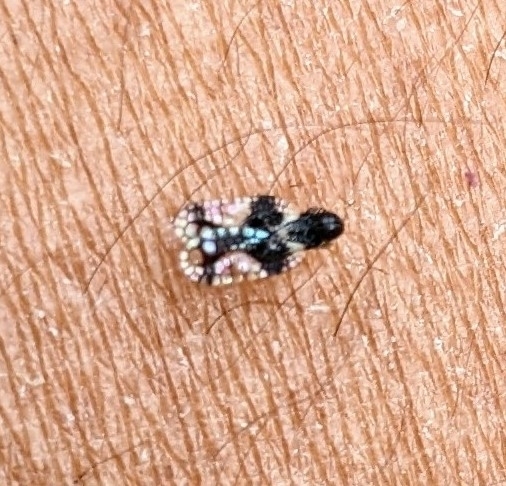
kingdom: Animalia
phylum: Arthropoda
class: Insecta
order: Hemiptera
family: Tingidae
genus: Stephanitis
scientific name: Stephanitis takeyai
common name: Andromeda lacebug
